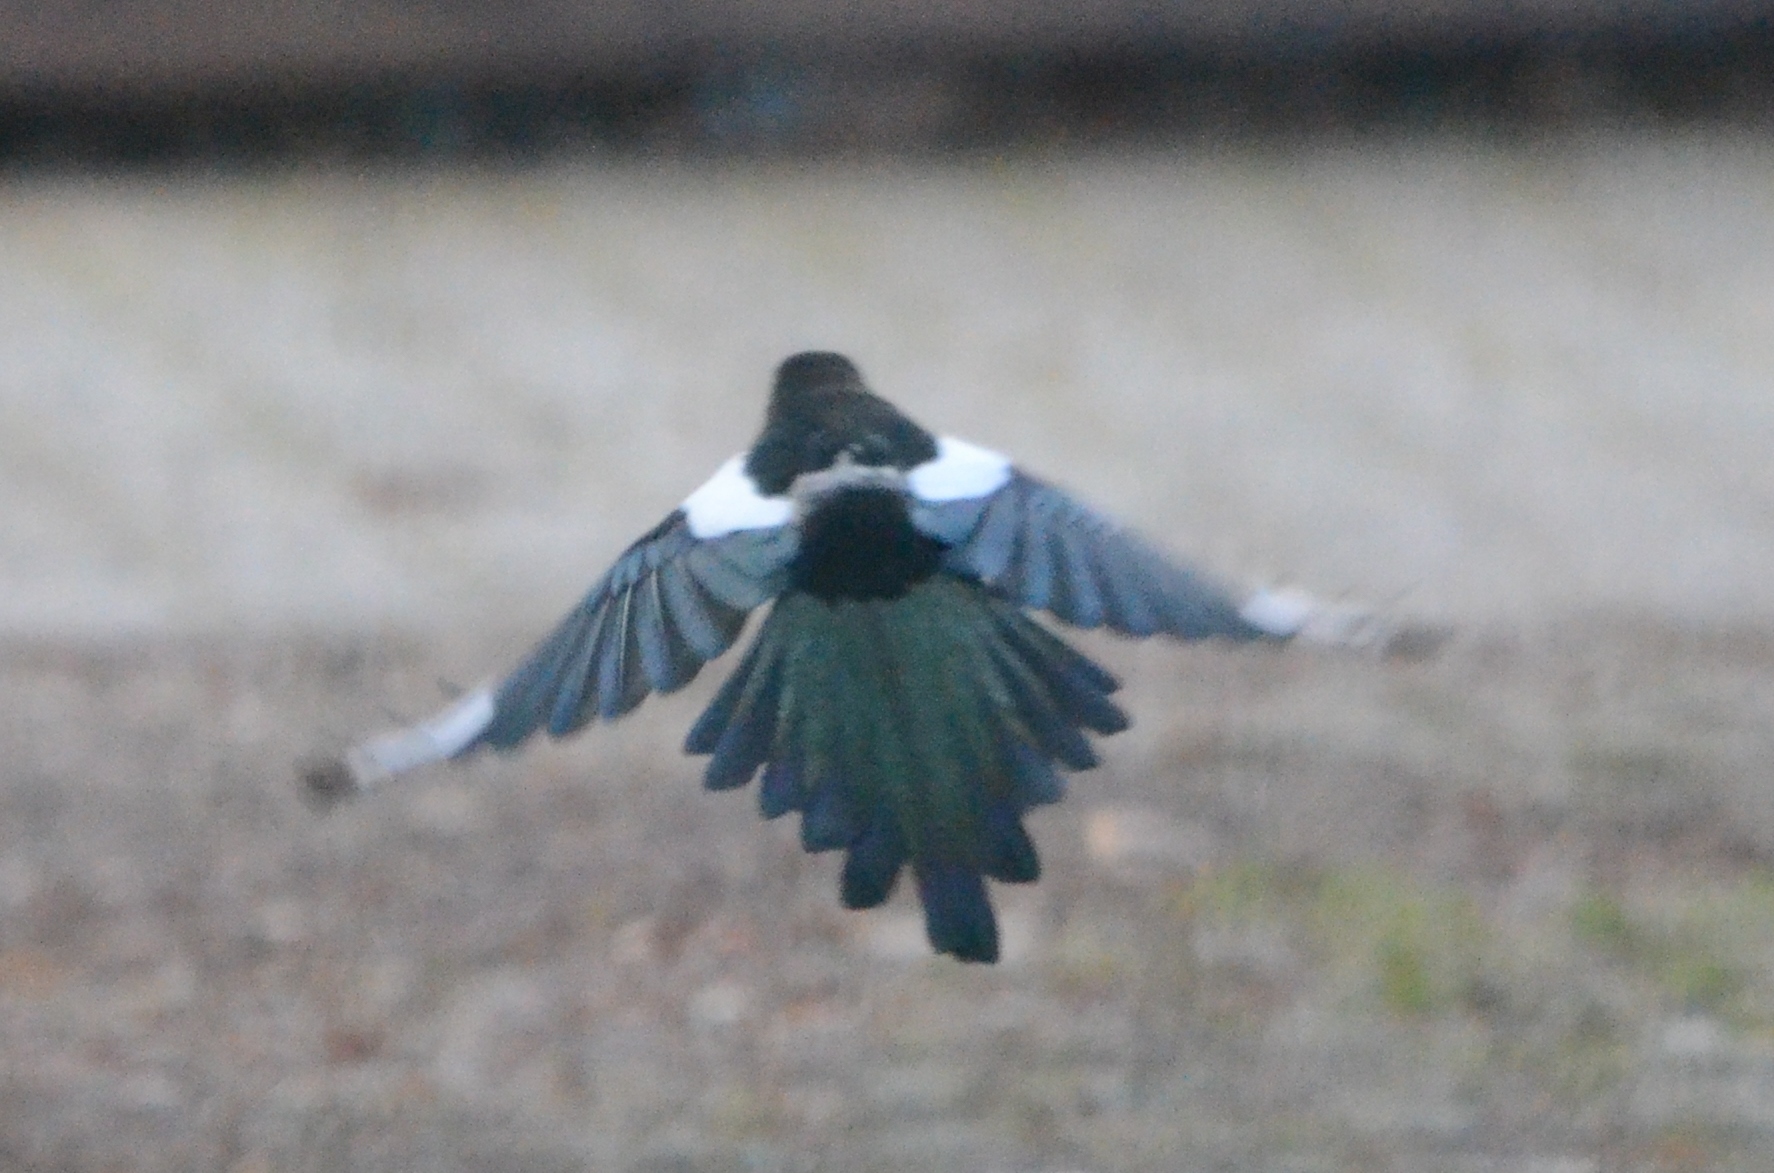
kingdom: Animalia
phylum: Chordata
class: Aves
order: Passeriformes
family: Corvidae
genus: Pica
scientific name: Pica pica
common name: Eurasian magpie
